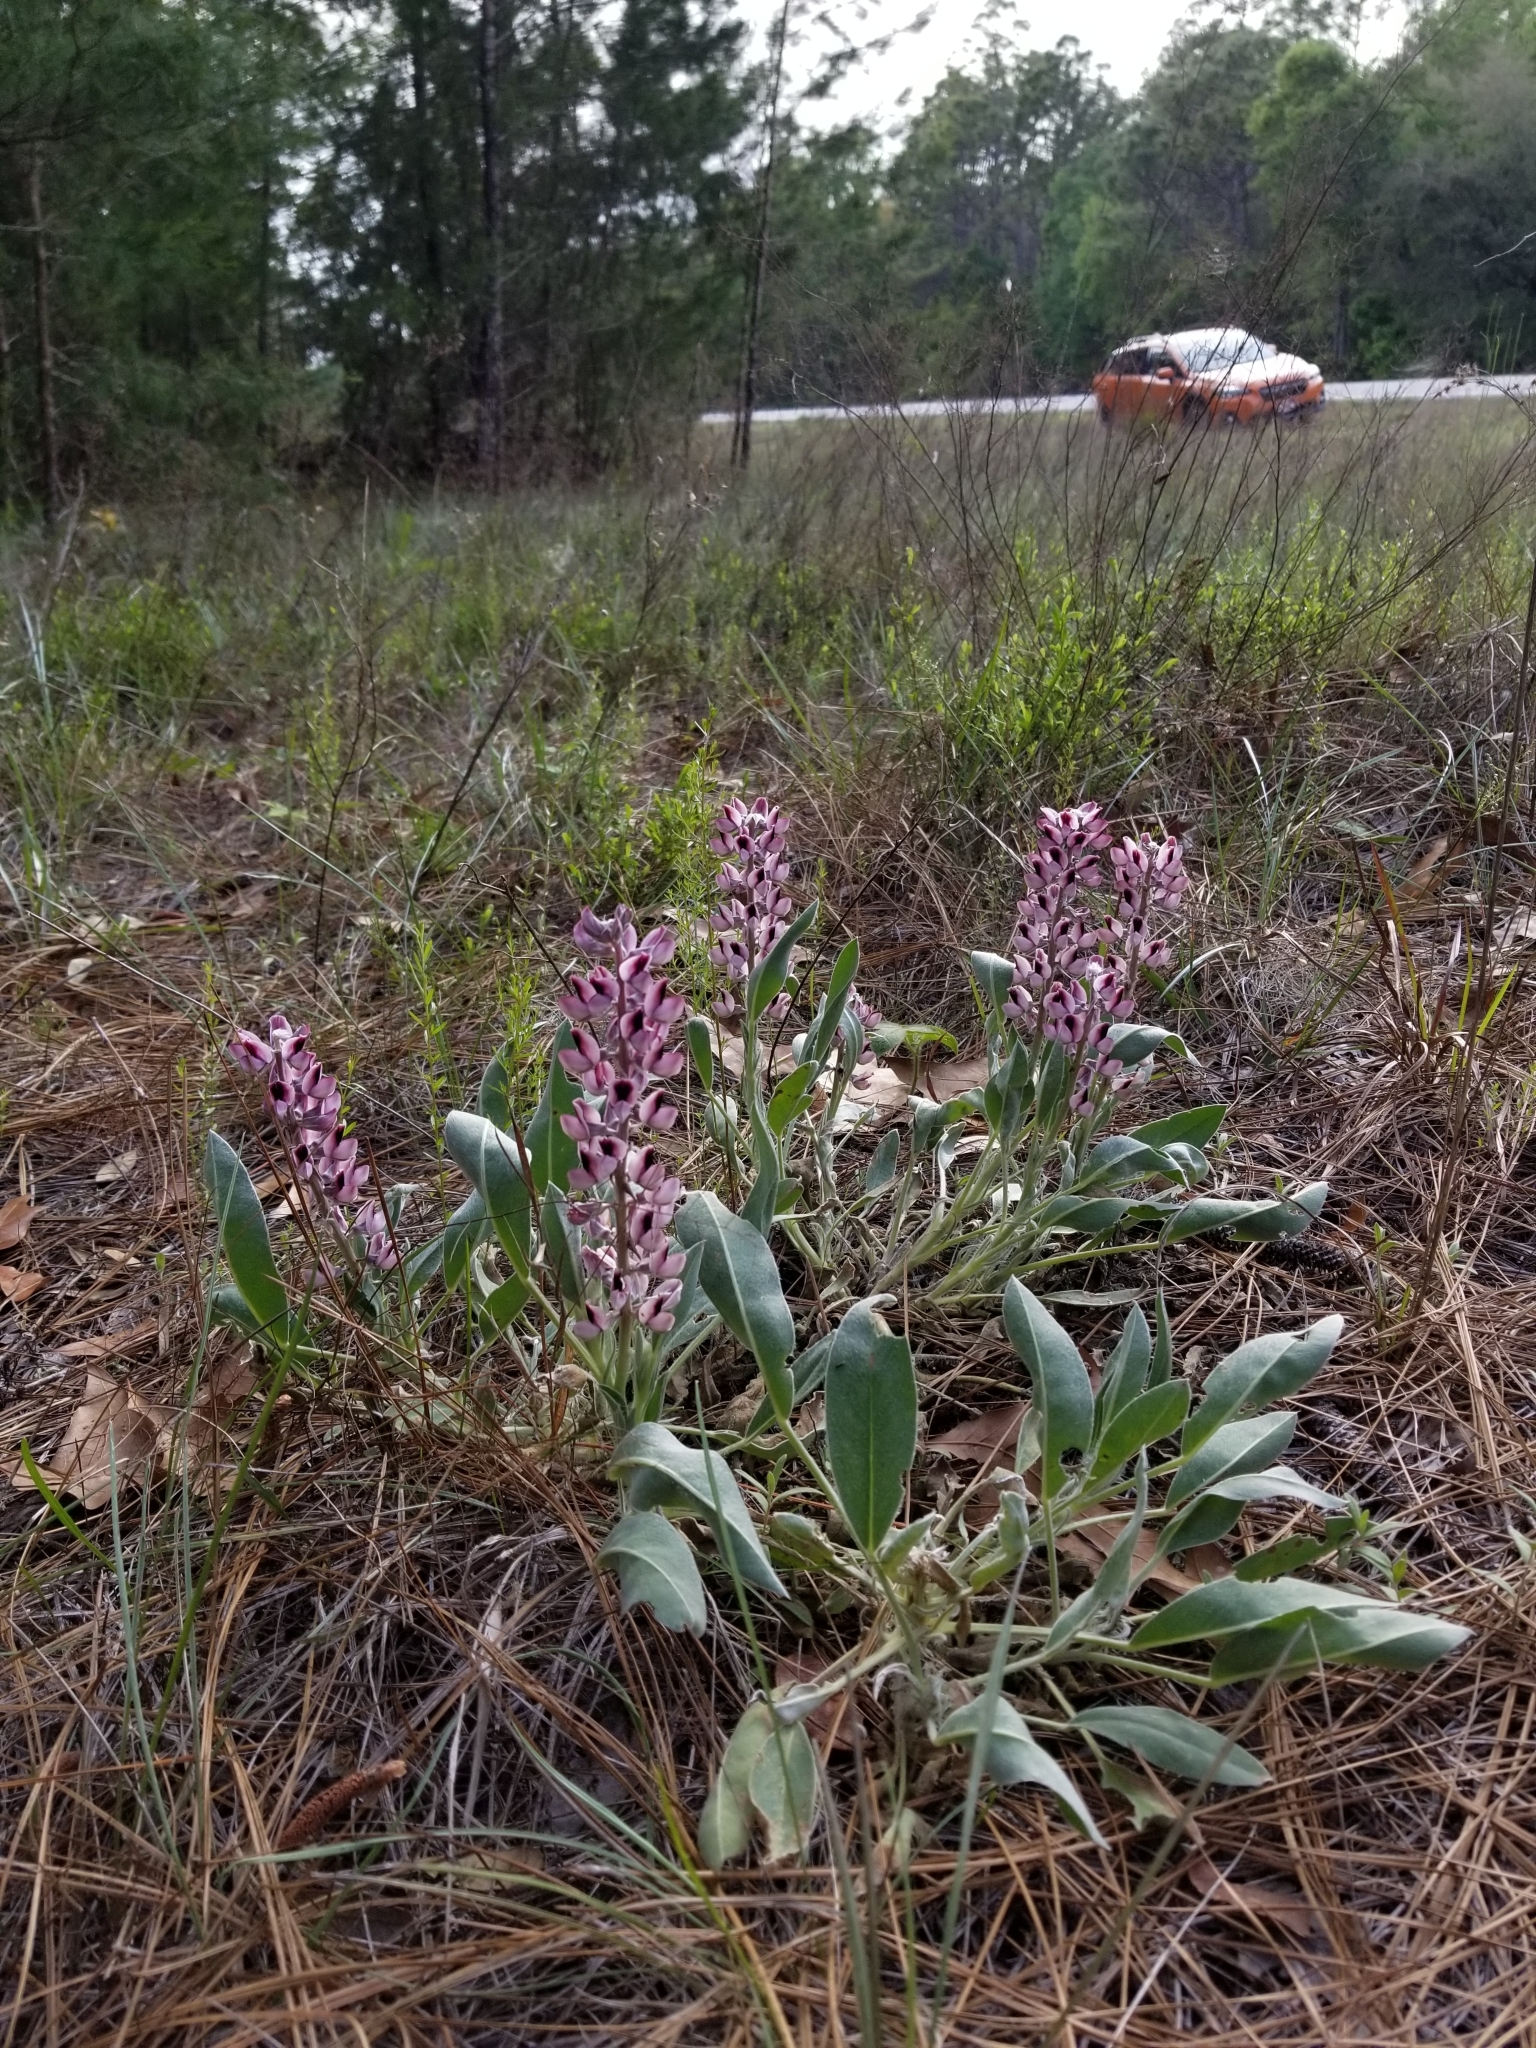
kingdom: Plantae
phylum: Tracheophyta
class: Magnoliopsida
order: Fabales
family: Fabaceae
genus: Lupinus
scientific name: Lupinus villosus
